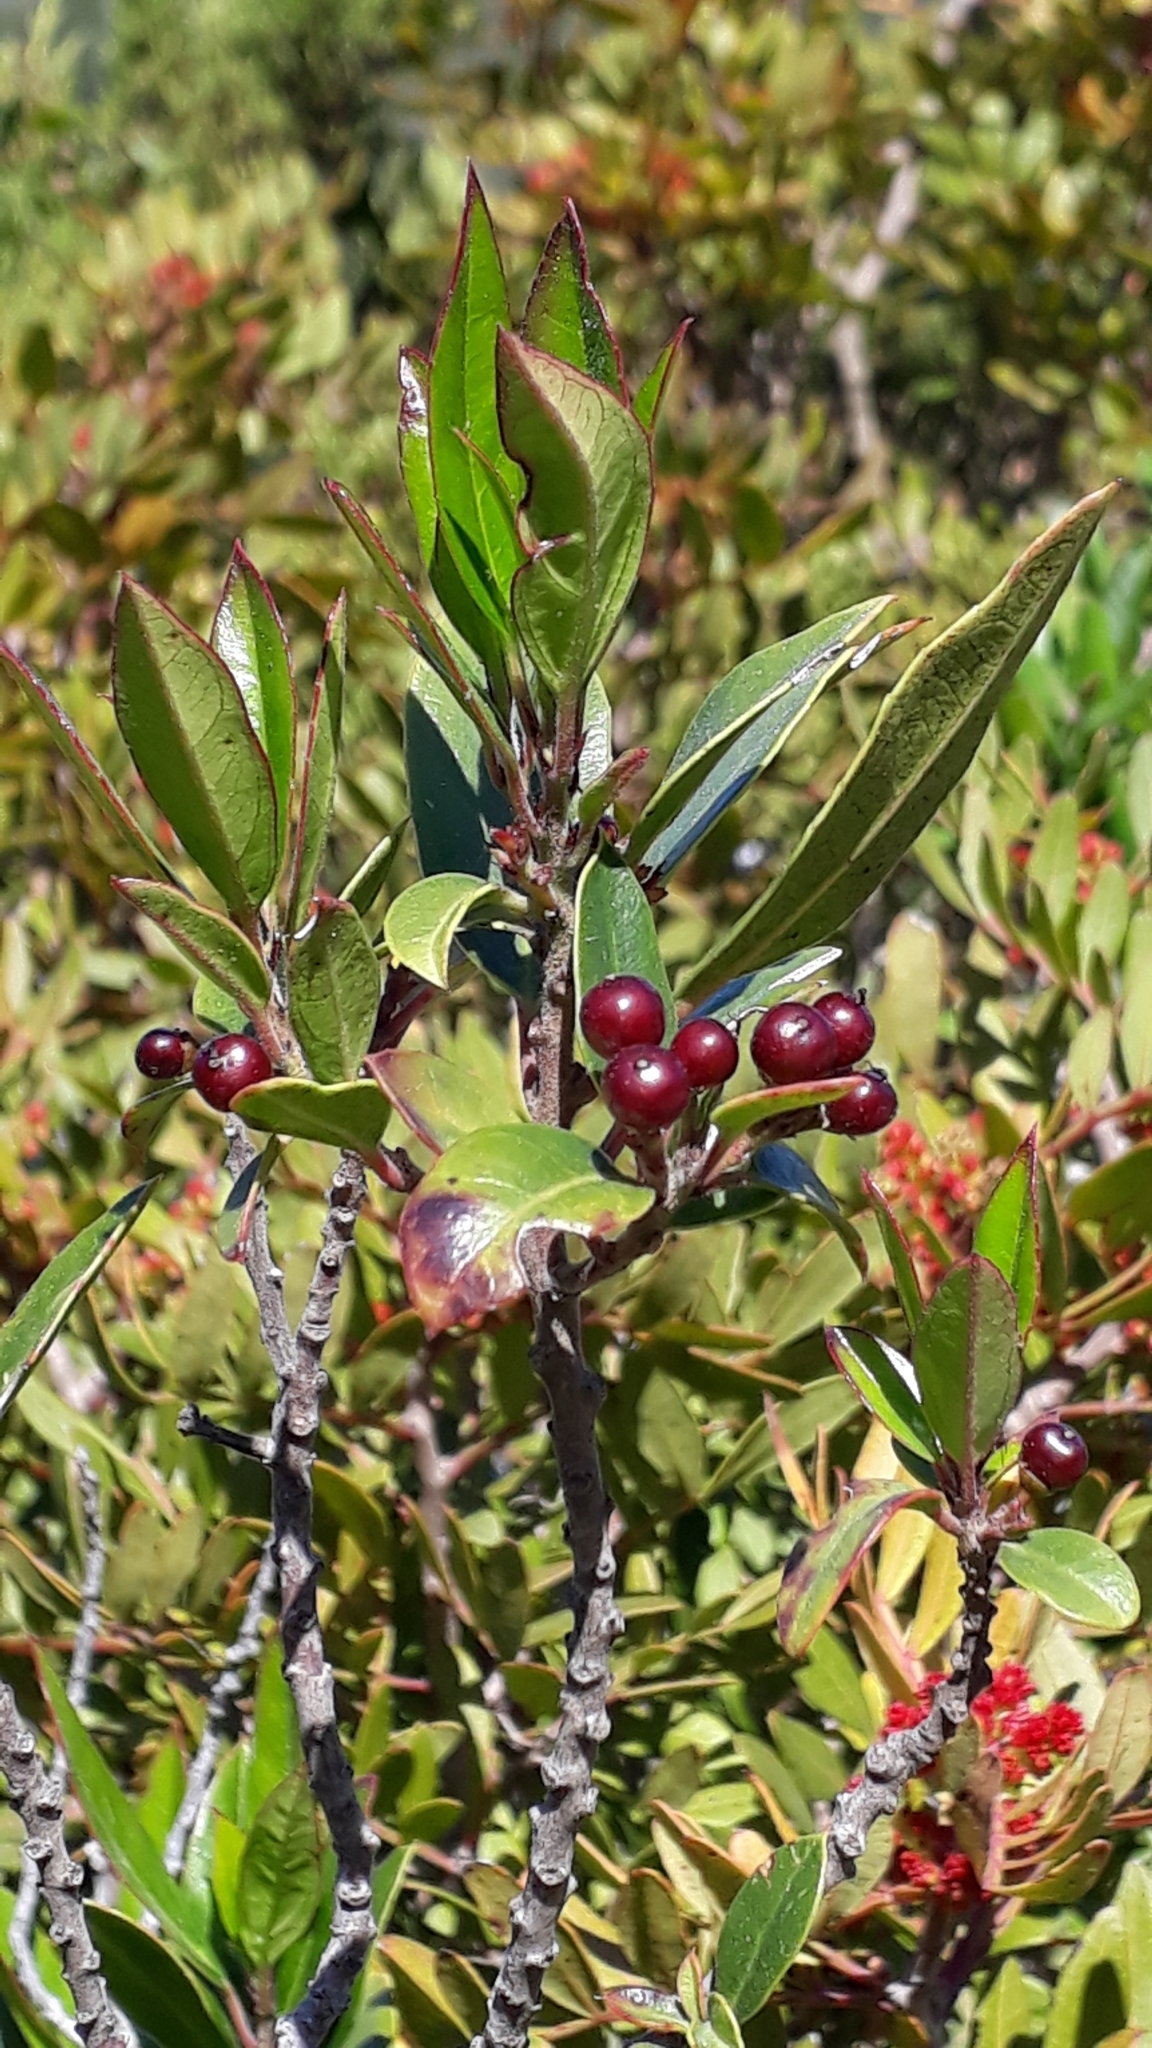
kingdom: Plantae
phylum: Tracheophyta
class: Magnoliopsida
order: Rosales
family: Rhamnaceae
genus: Rhamnus
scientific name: Rhamnus alaternus
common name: Mediterranean buckthorn
